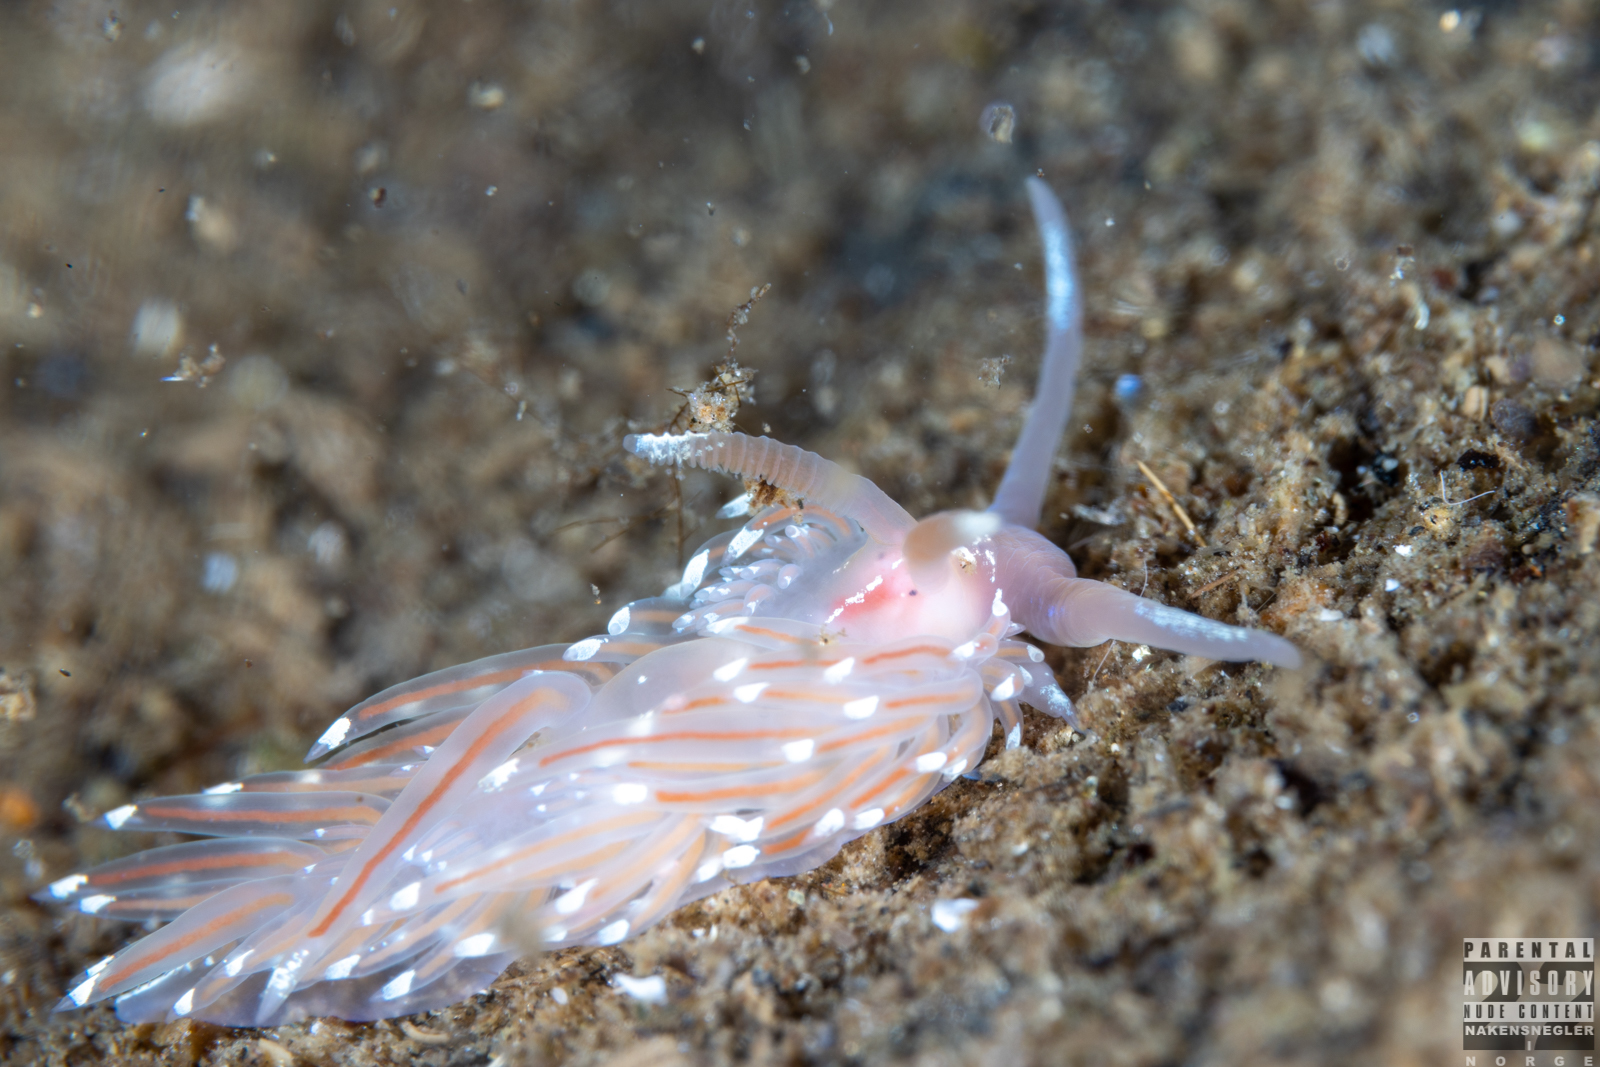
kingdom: Animalia
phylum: Mollusca
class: Gastropoda
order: Nudibranchia
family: Facelinidae
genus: Facelina
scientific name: Facelina bostoniensis
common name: Boston facelina
